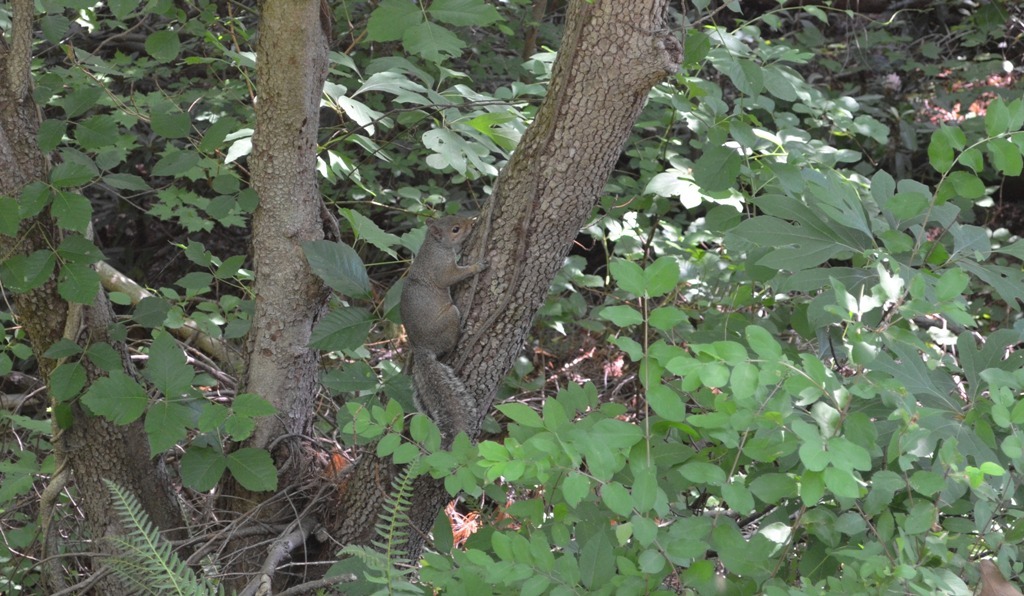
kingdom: Animalia
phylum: Chordata
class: Mammalia
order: Rodentia
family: Sciuridae
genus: Sciurus
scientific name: Sciurus carolinensis
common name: Eastern gray squirrel
